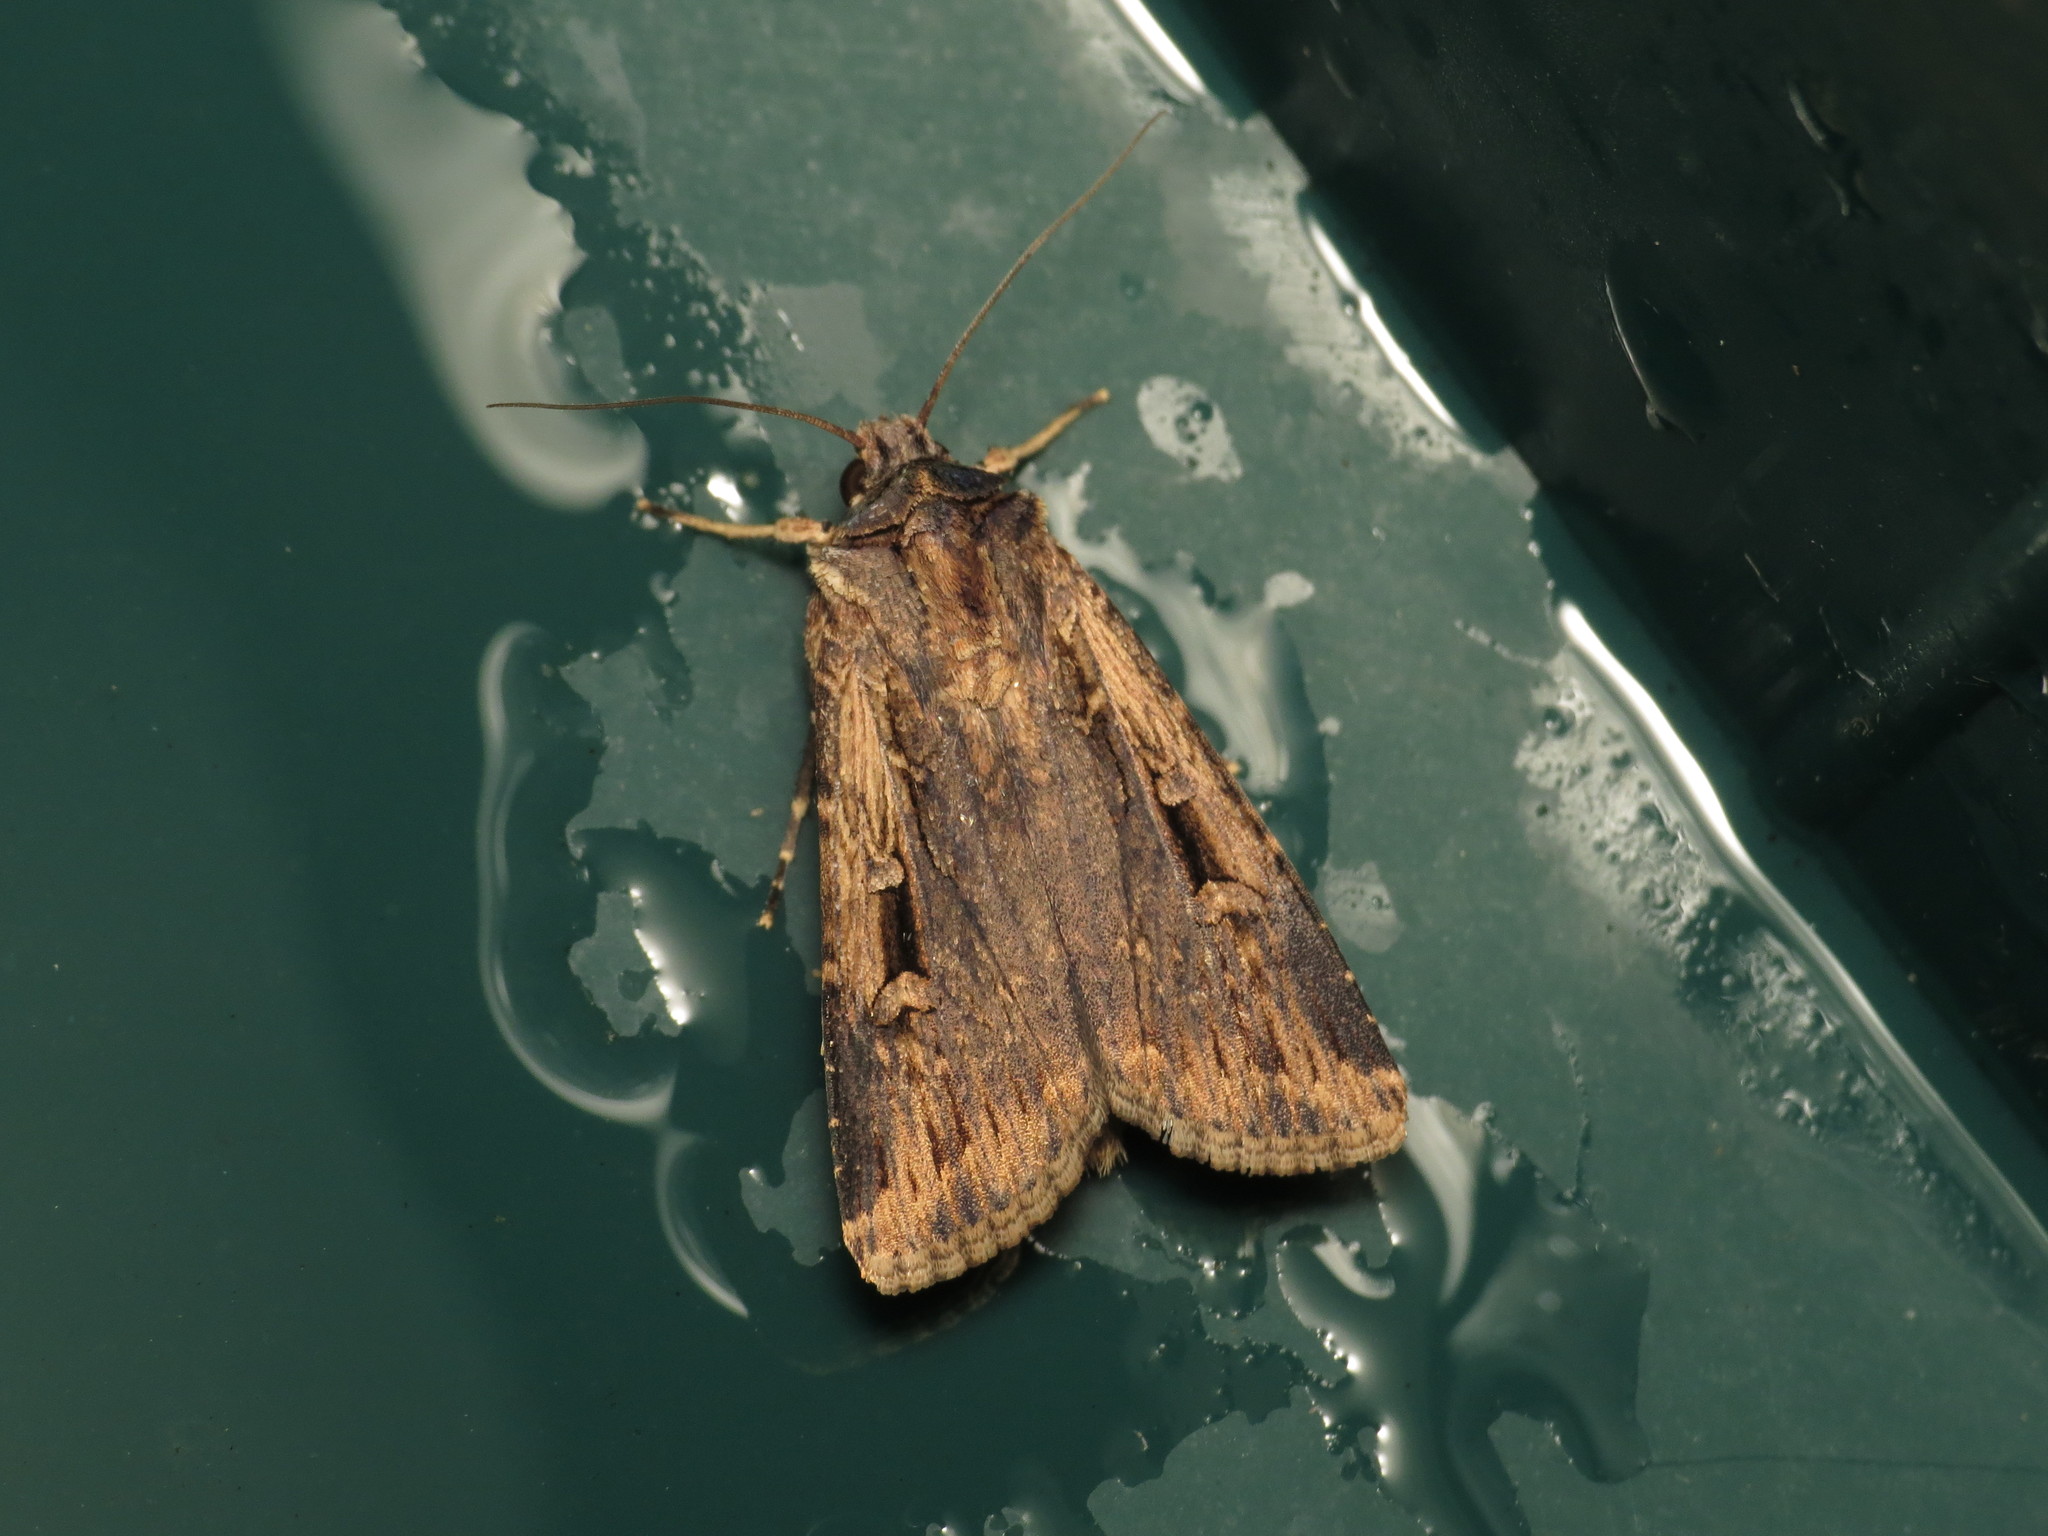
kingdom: Animalia
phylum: Arthropoda
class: Insecta
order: Lepidoptera
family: Noctuidae
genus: Feltia
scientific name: Feltia subterranea
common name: Granulate cutworm
